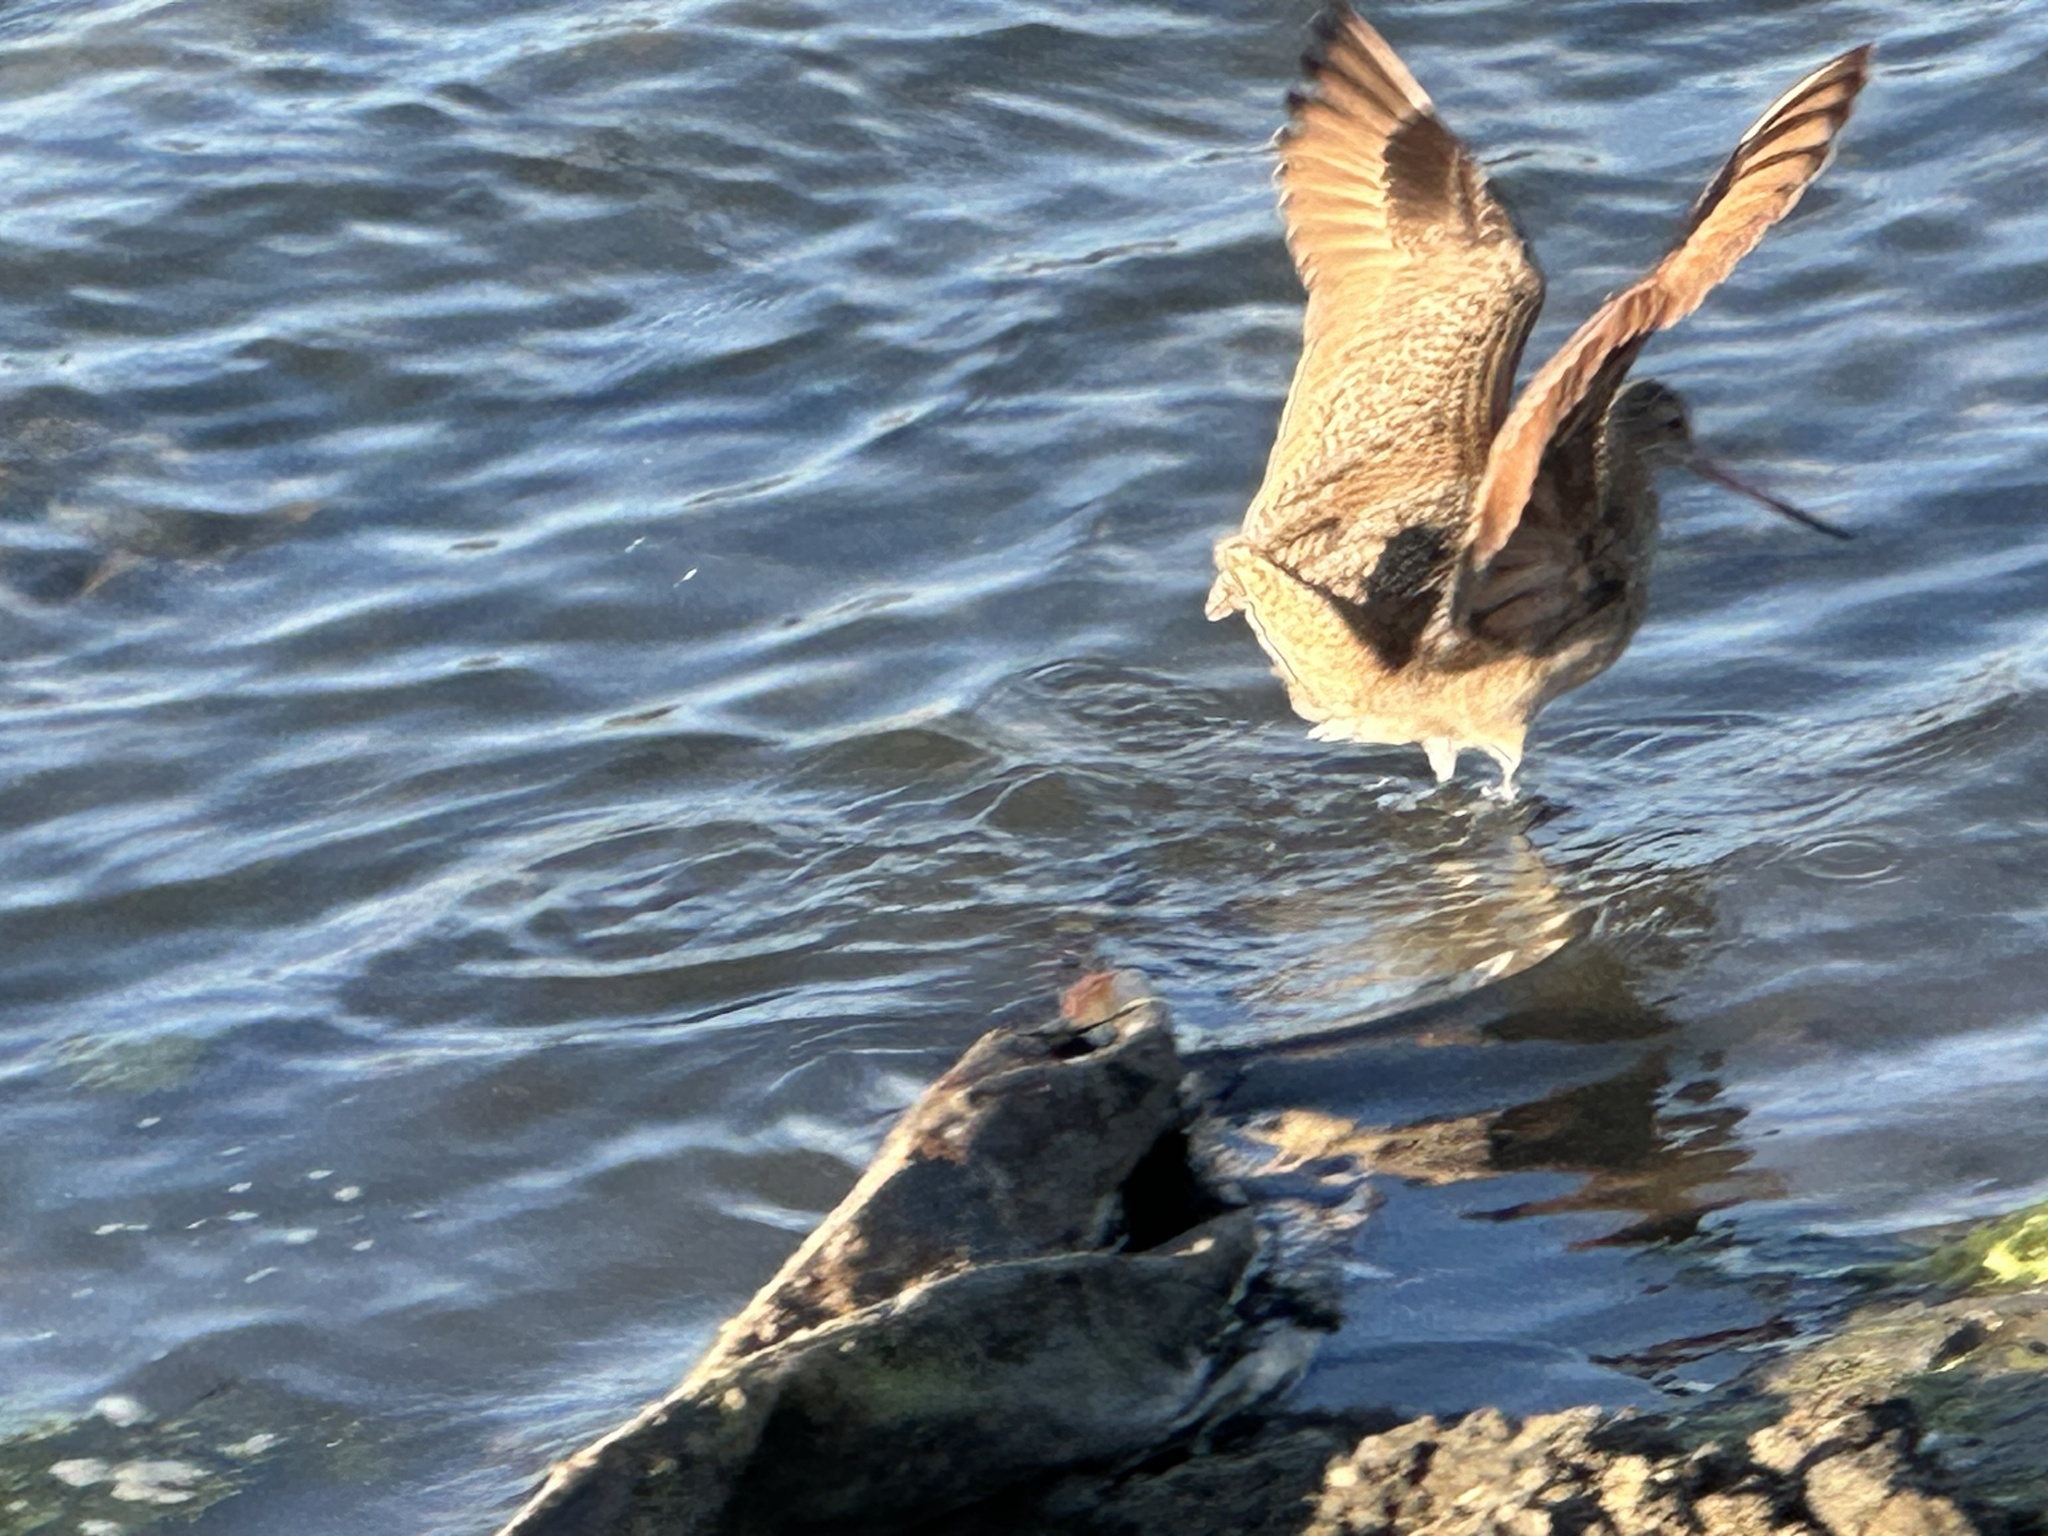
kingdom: Animalia
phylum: Chordata
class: Aves
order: Charadriiformes
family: Scolopacidae
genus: Limosa
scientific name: Limosa fedoa
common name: Marbled godwit
